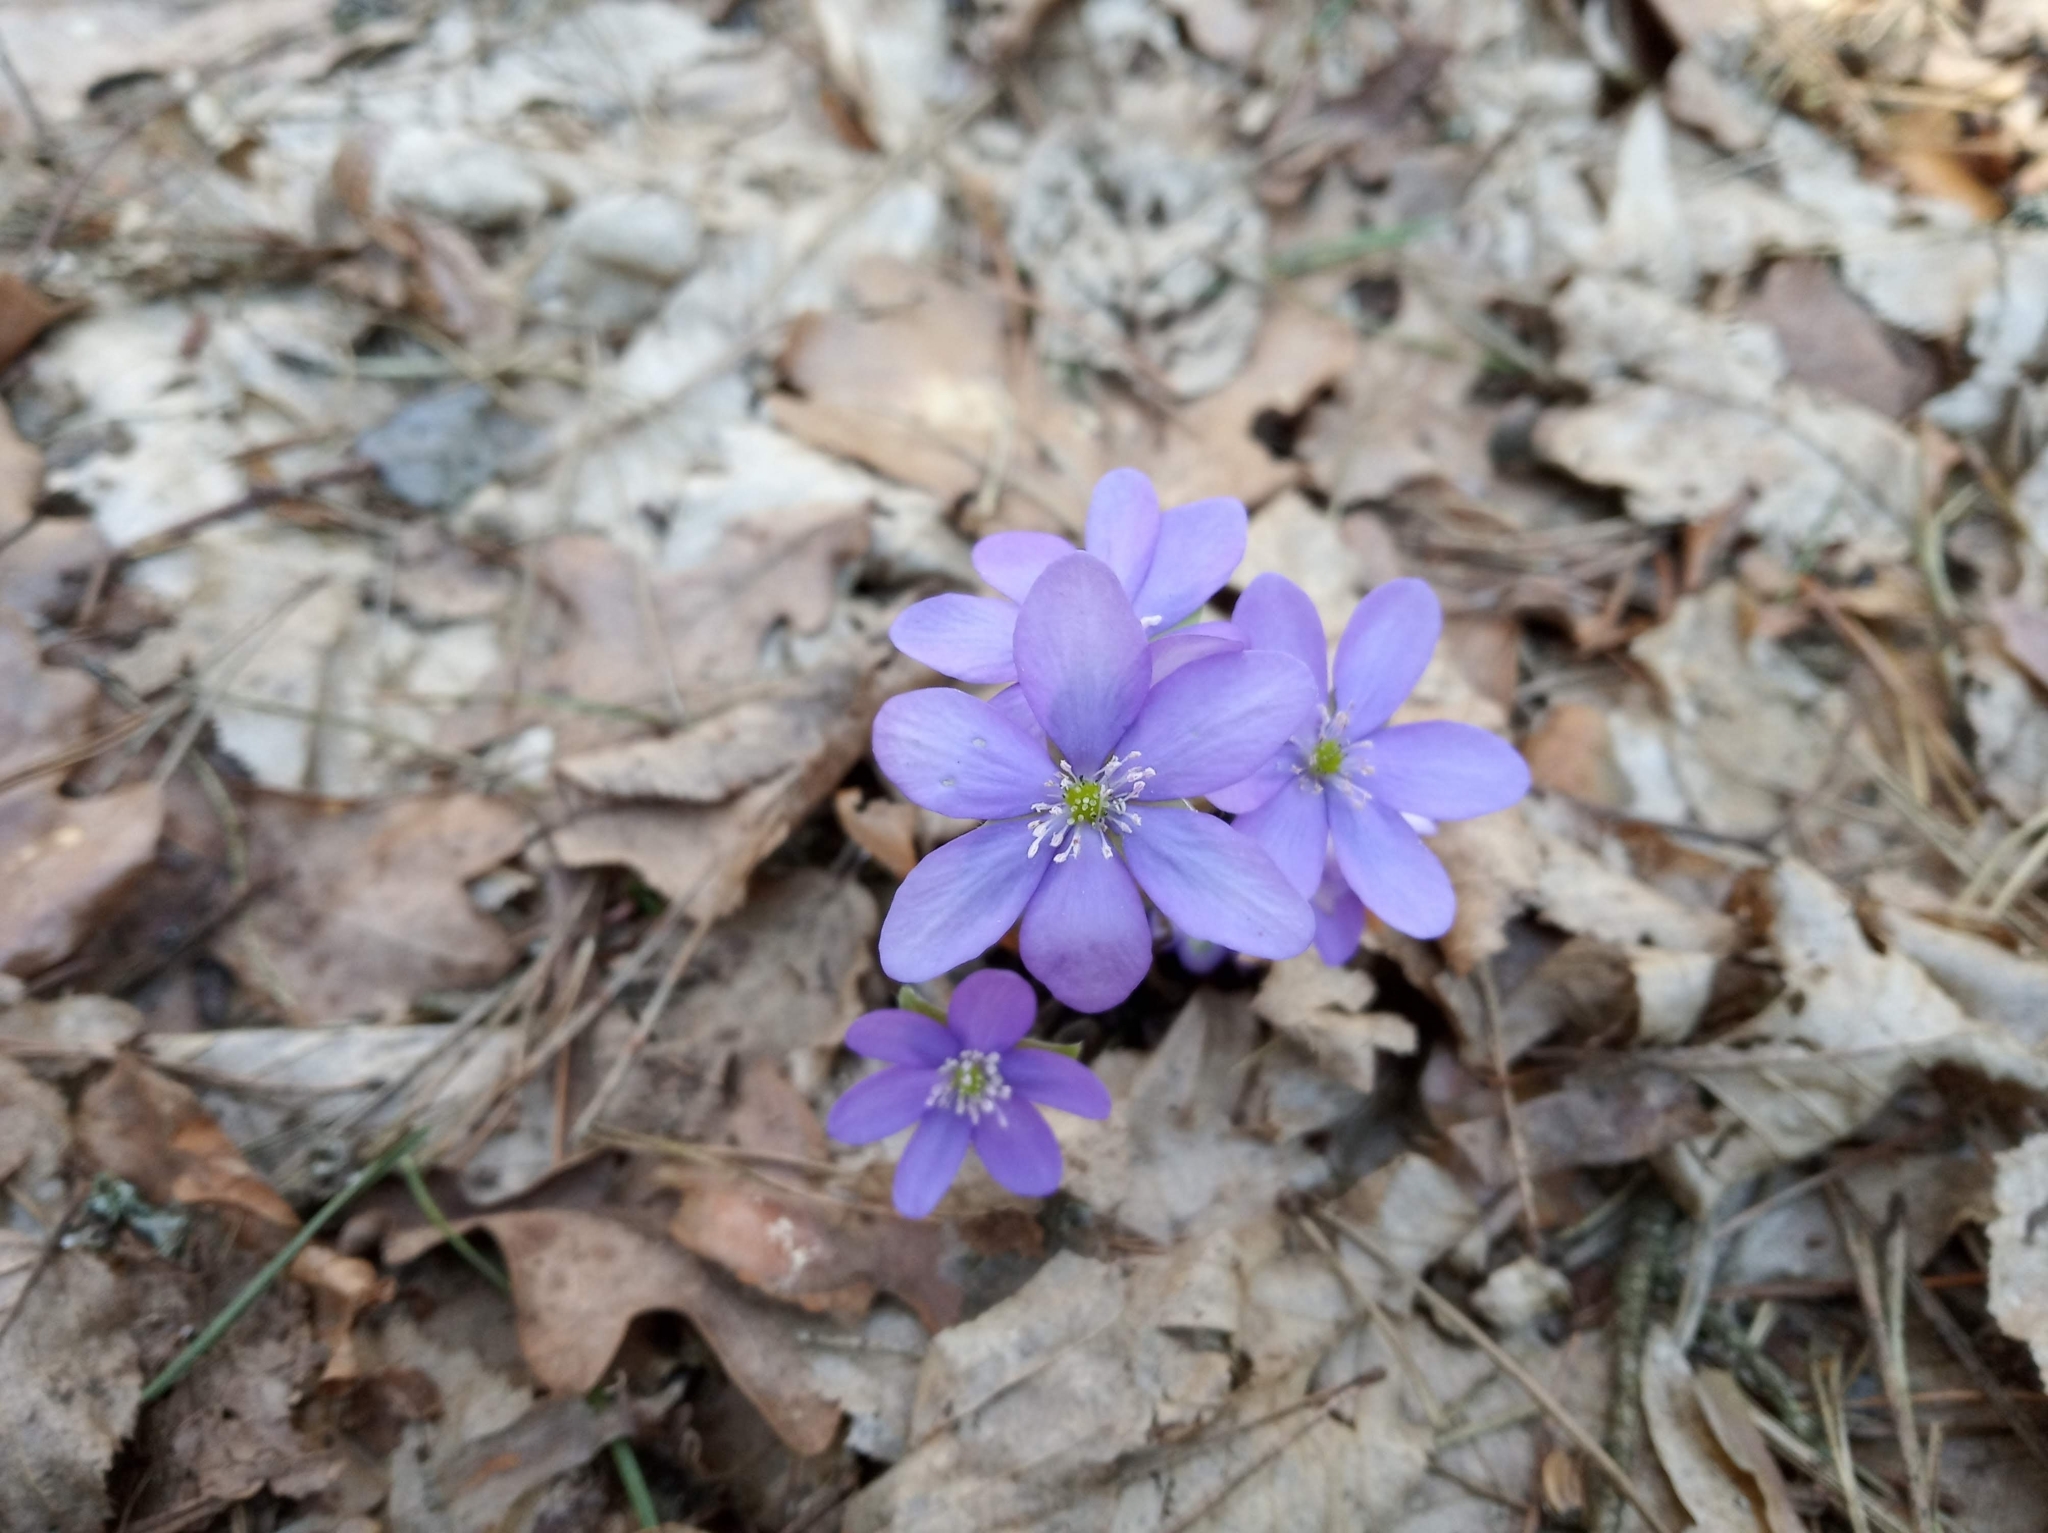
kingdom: Plantae
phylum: Tracheophyta
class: Magnoliopsida
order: Ranunculales
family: Ranunculaceae
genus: Hepatica
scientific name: Hepatica nobilis
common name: Liverleaf
